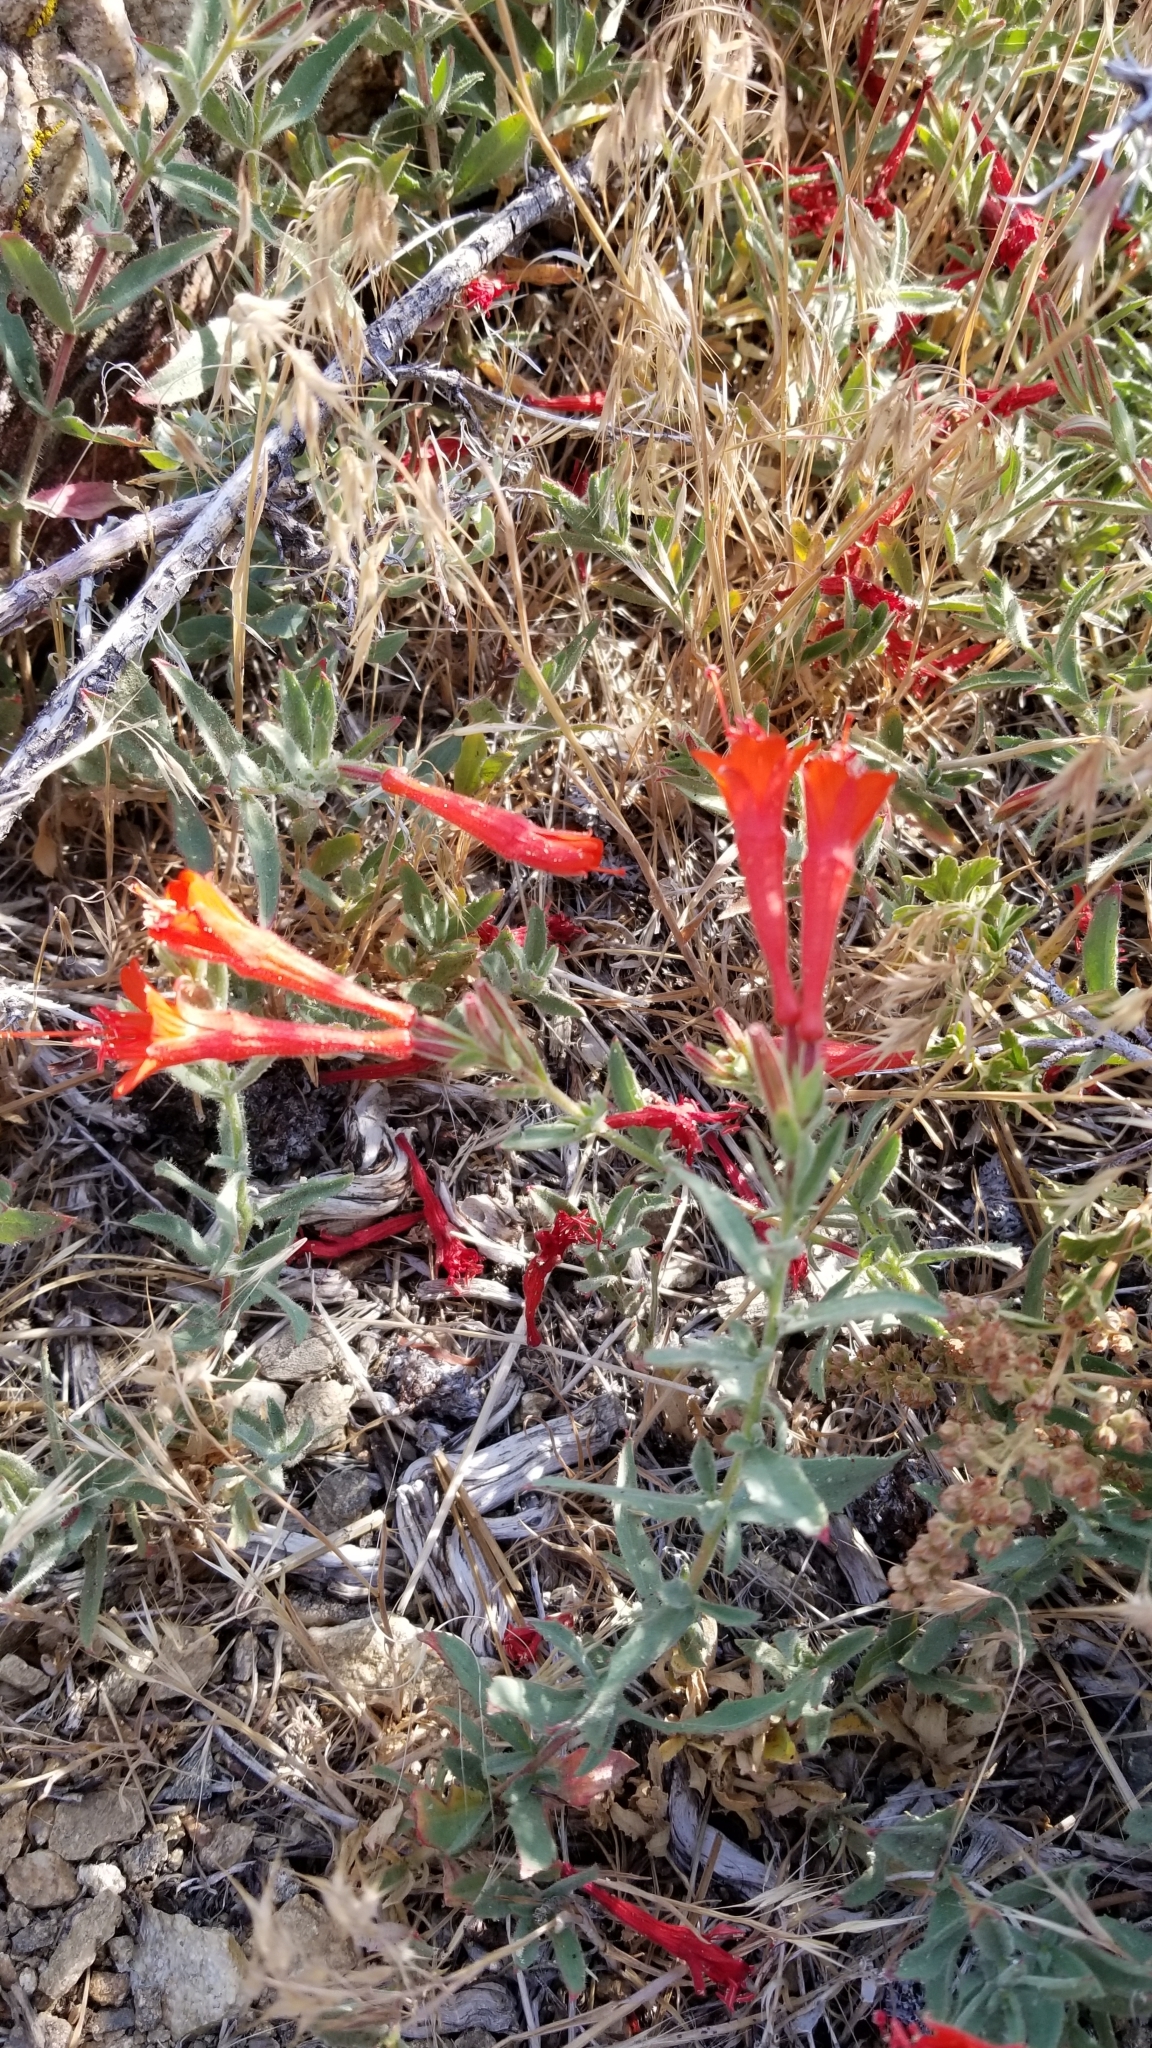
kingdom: Plantae
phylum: Tracheophyta
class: Magnoliopsida
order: Myrtales
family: Onagraceae
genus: Epilobium
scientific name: Epilobium canum
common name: California-fuchsia
